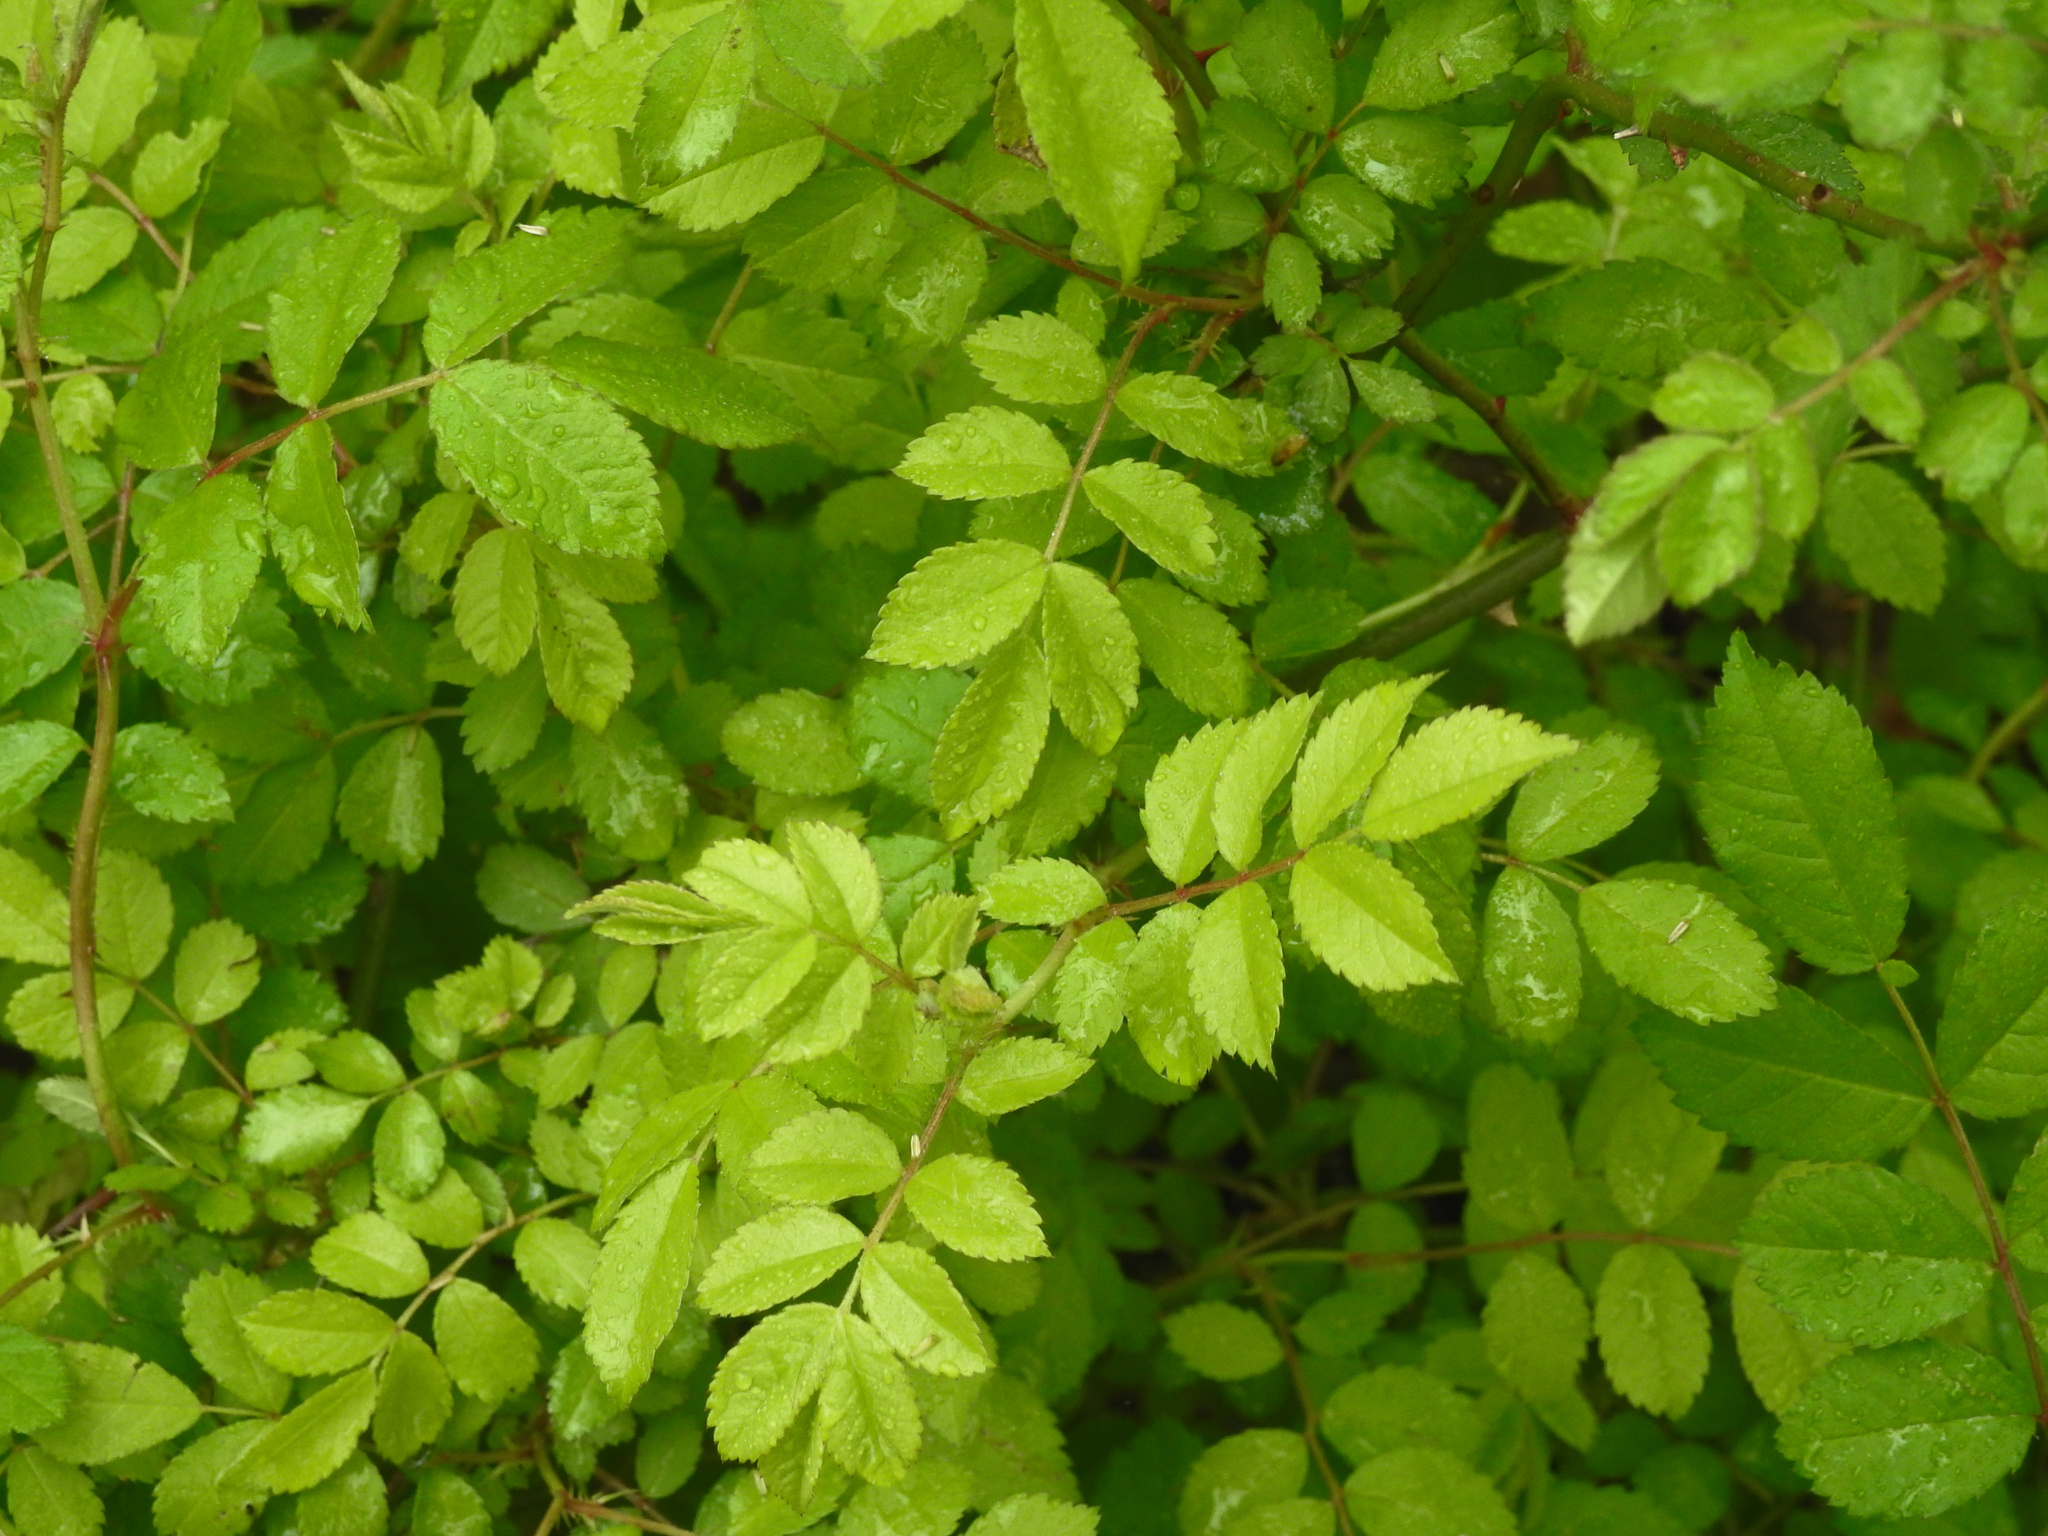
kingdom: Plantae
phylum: Tracheophyta
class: Magnoliopsida
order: Rosales
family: Rosaceae
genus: Rosa
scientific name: Rosa multiflora
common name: Multiflora rose
